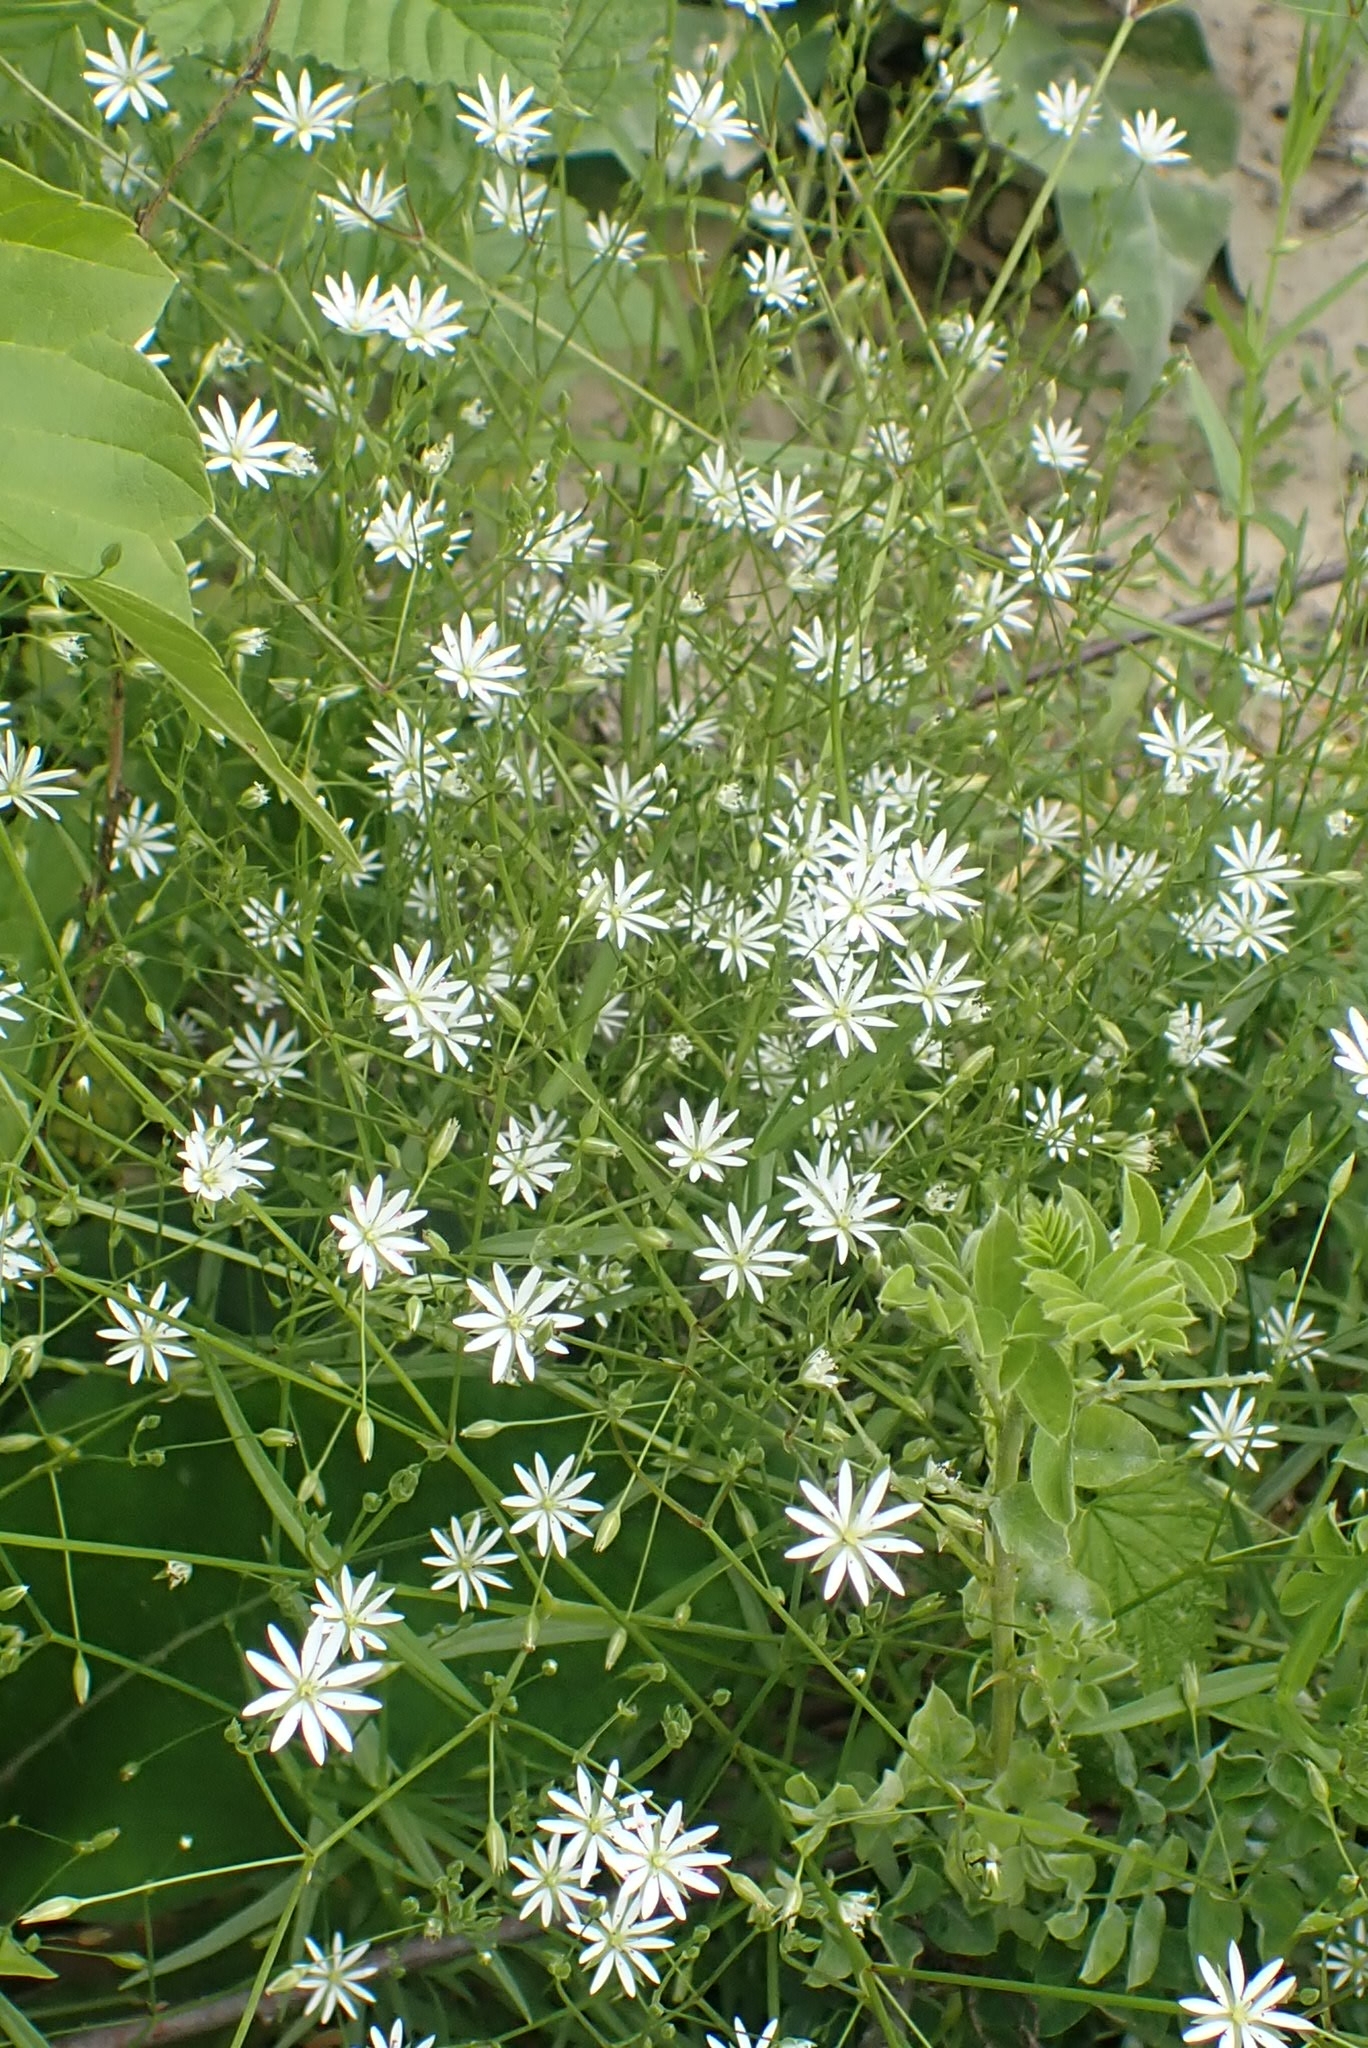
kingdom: Plantae
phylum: Tracheophyta
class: Magnoliopsida
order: Caryophyllales
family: Caryophyllaceae
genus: Stellaria
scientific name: Stellaria graminea
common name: Grass-like starwort
